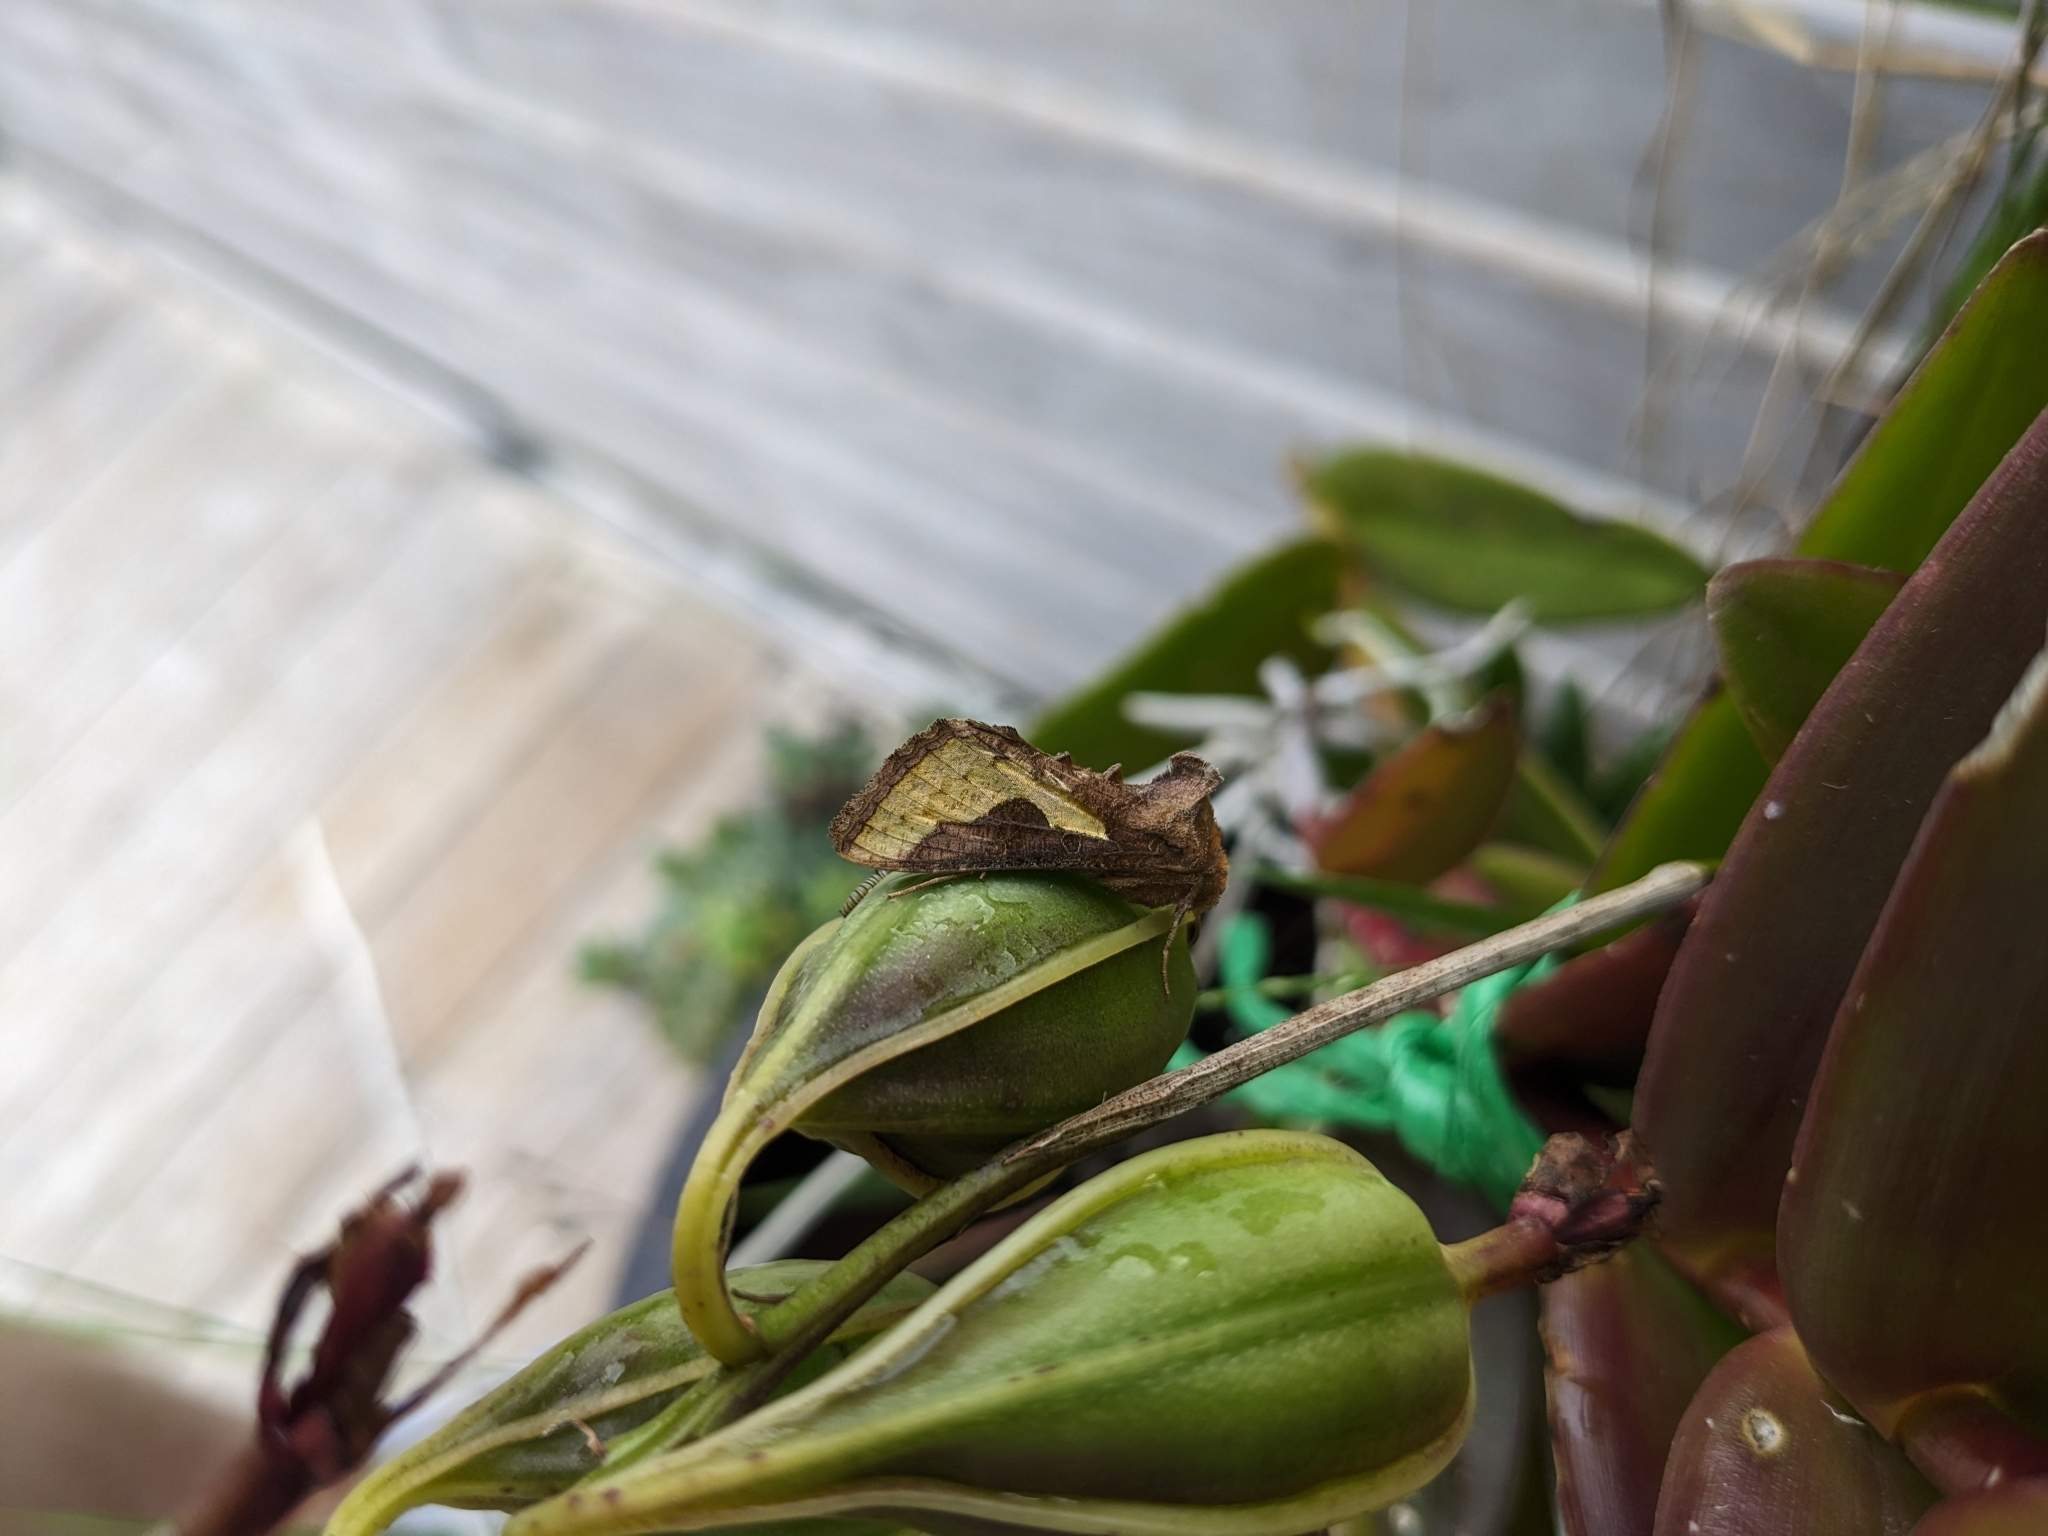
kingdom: Animalia
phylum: Arthropoda
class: Insecta
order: Lepidoptera
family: Noctuidae
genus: Thysanoplusia
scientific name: Thysanoplusia orichalcea
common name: Slender burnished brass, golden plusia
